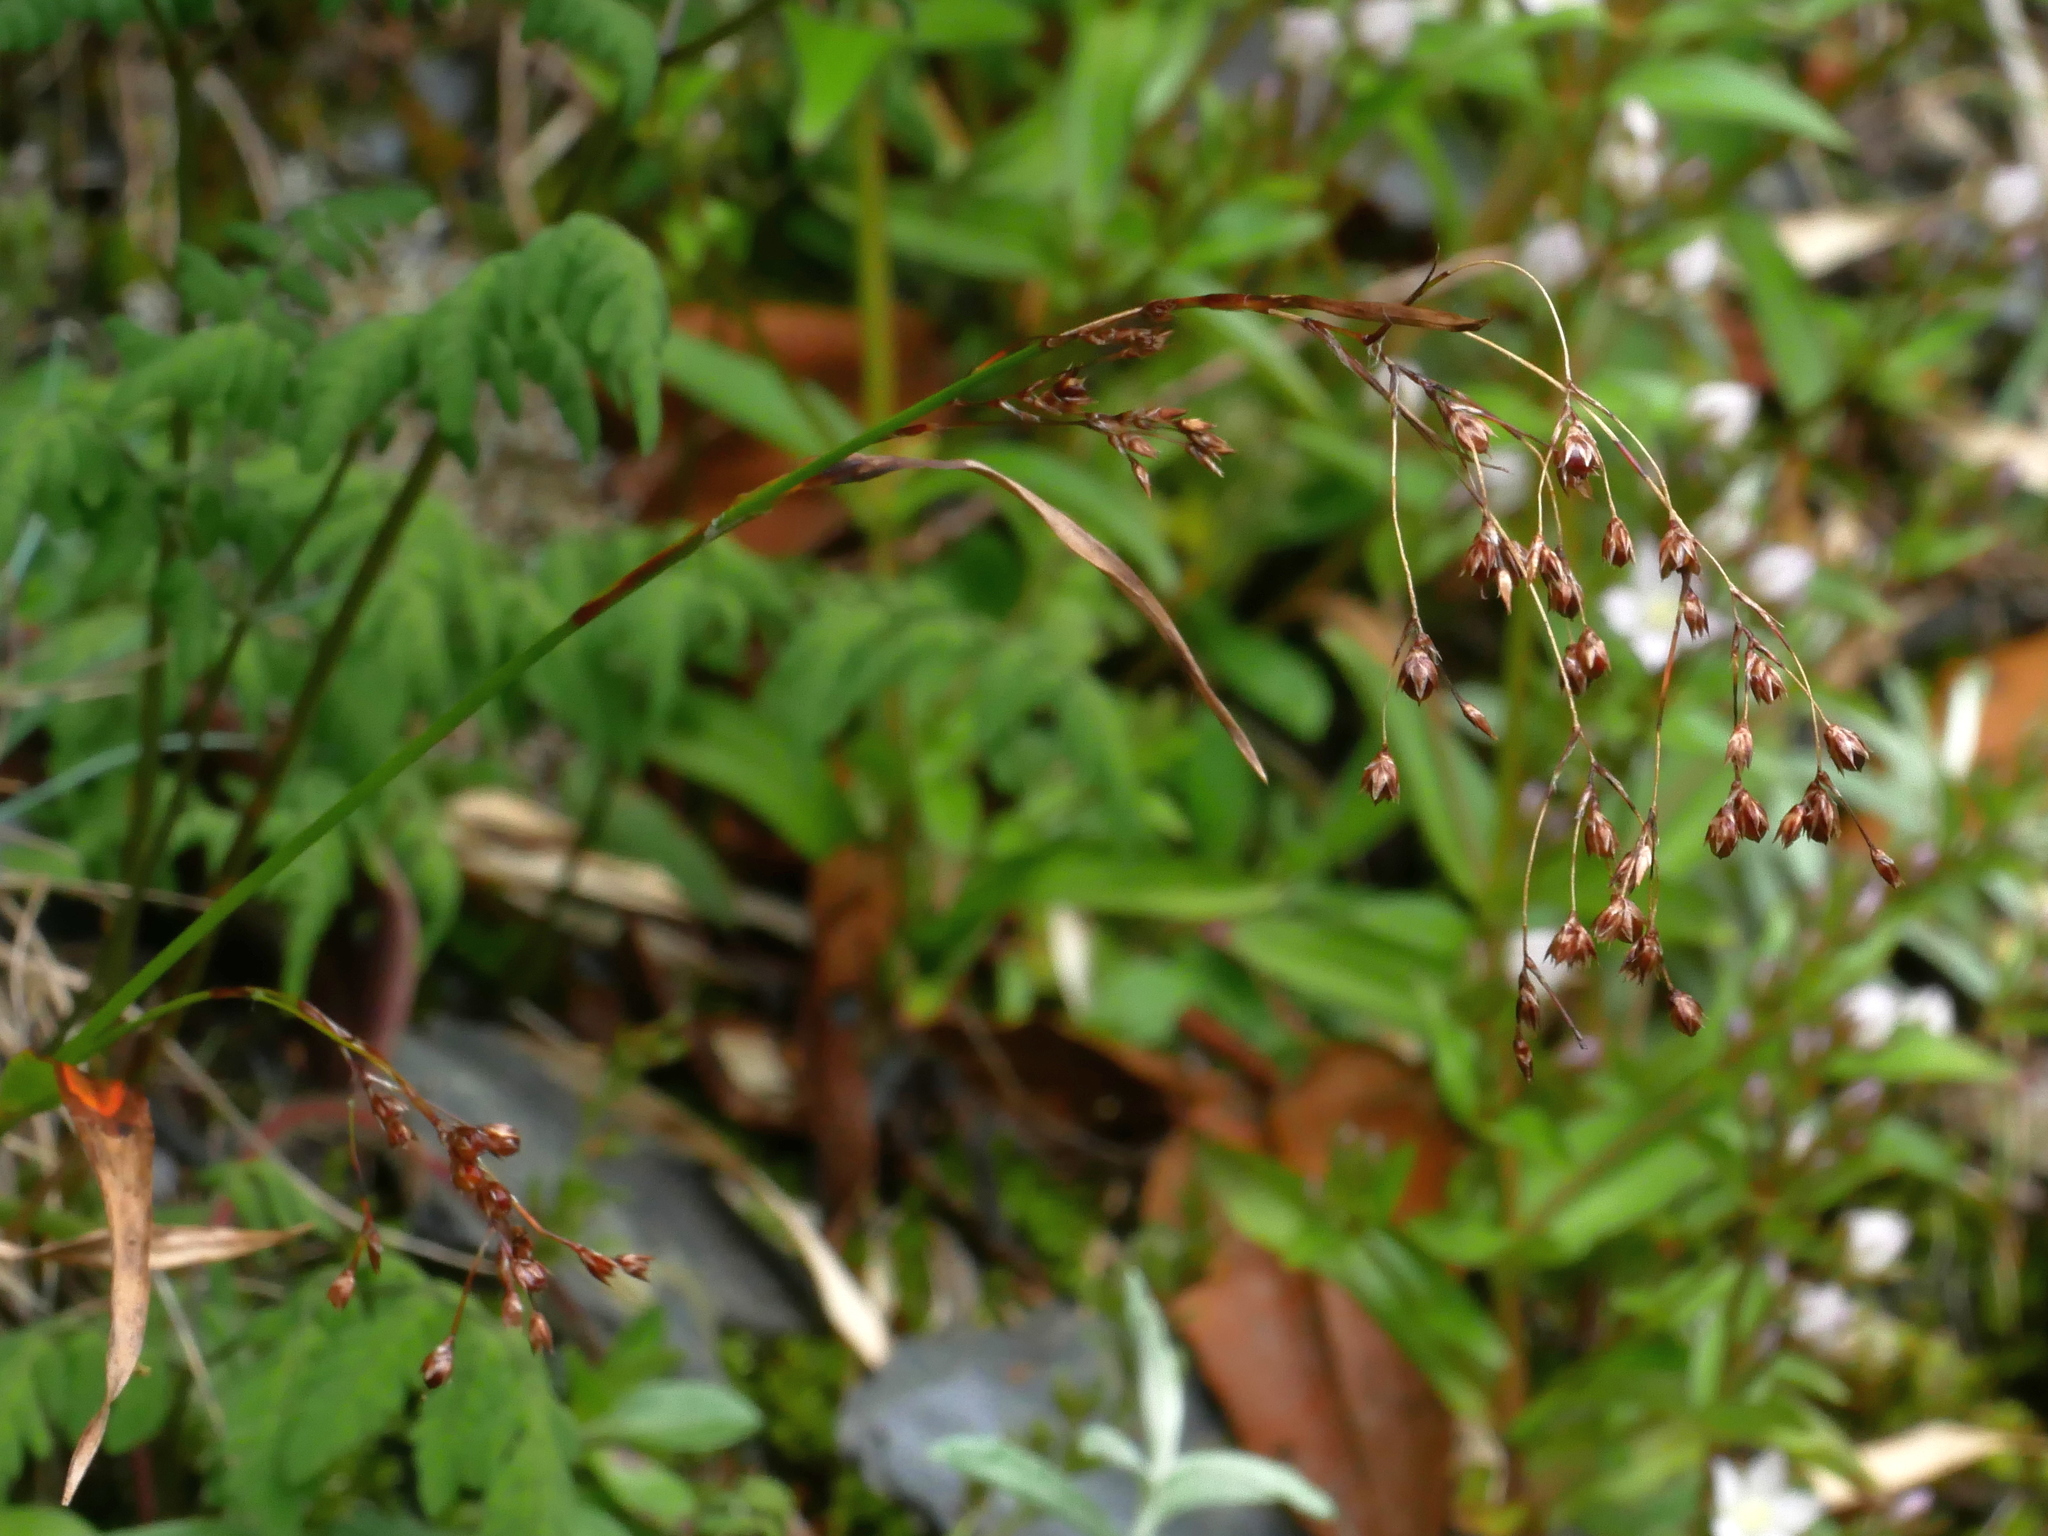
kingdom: Plantae
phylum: Tracheophyta
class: Liliopsida
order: Poales
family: Juncaceae
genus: Luzula
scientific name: Luzula effusa
